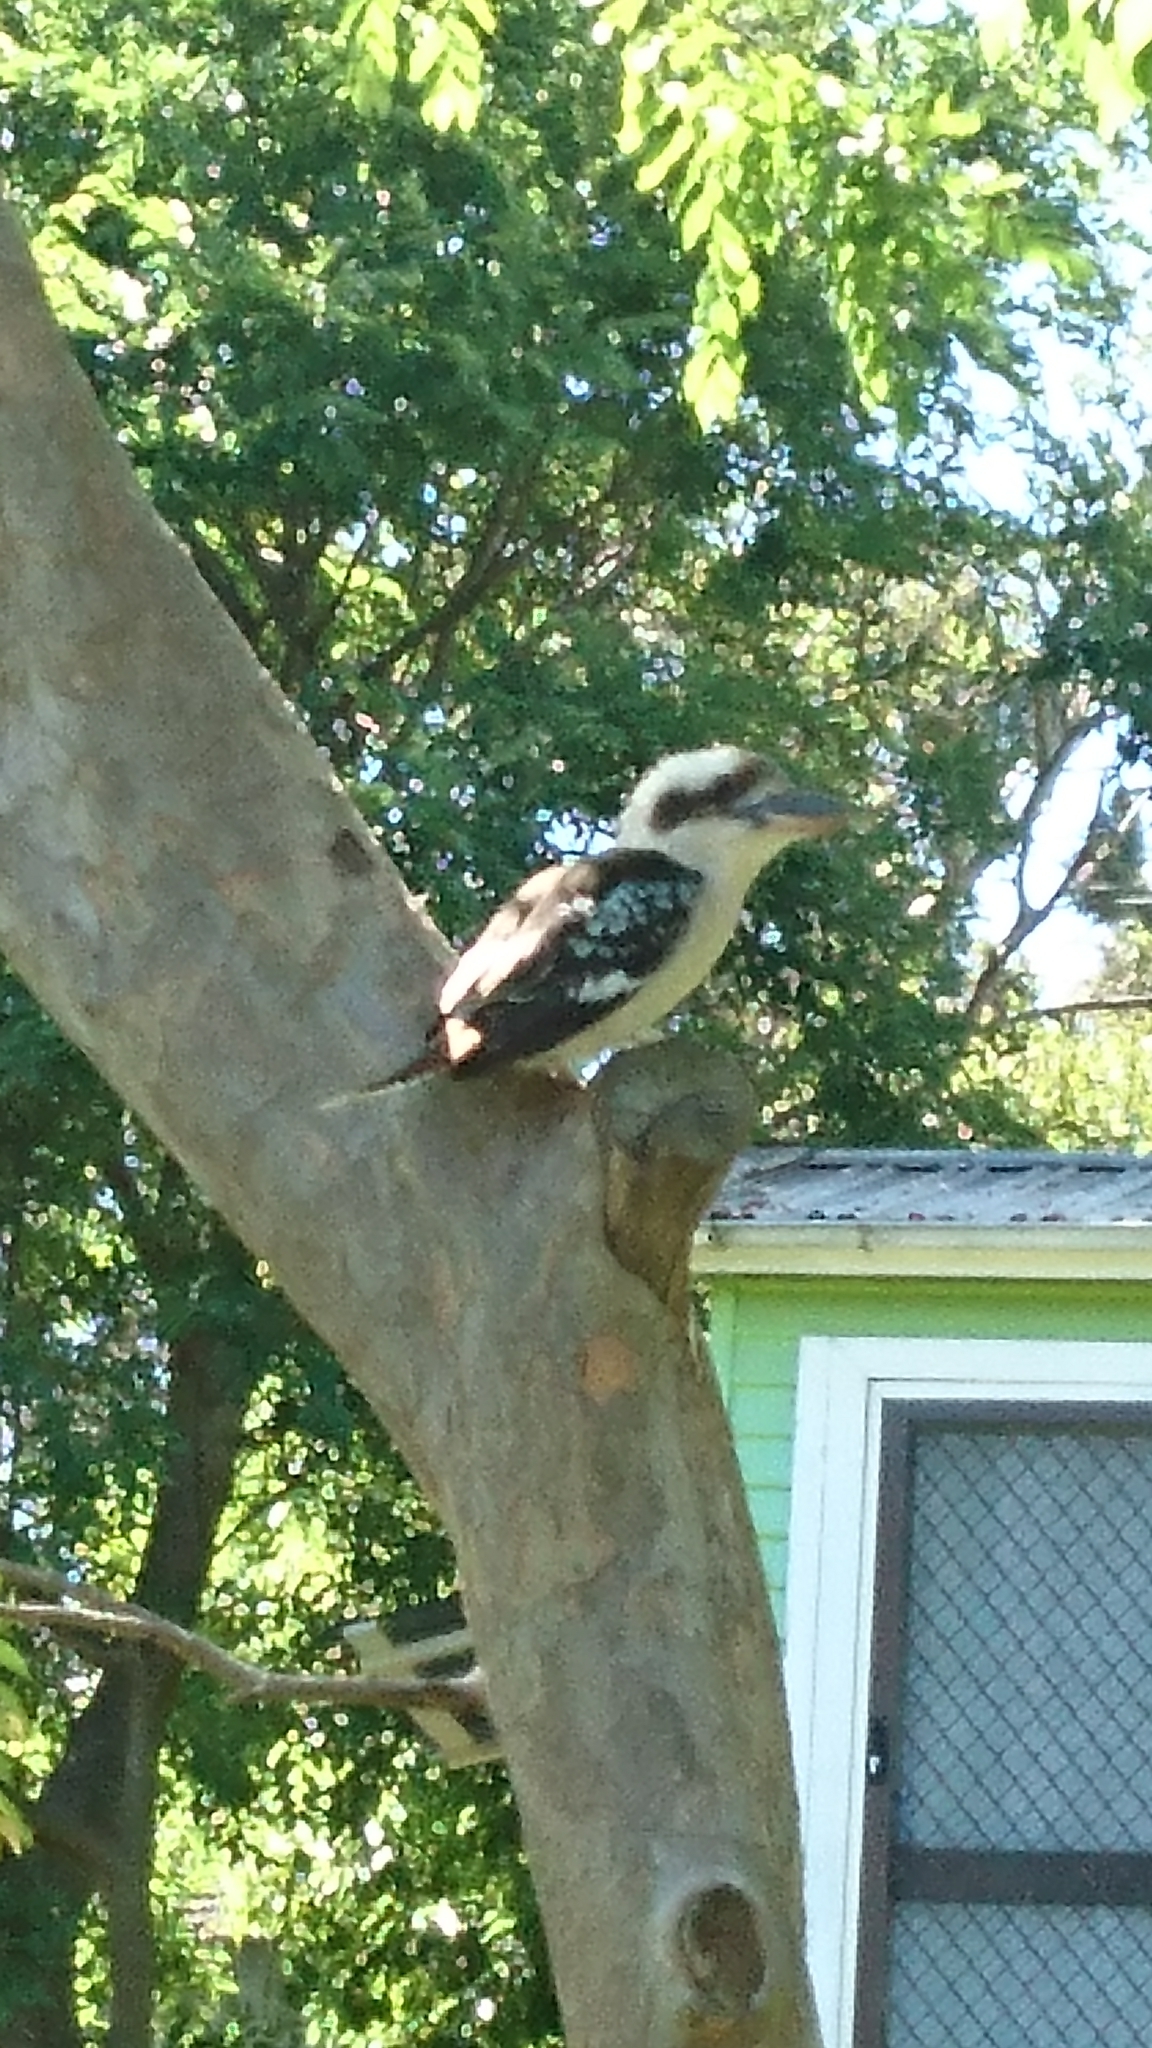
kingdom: Animalia
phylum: Chordata
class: Aves
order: Coraciiformes
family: Alcedinidae
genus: Dacelo
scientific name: Dacelo novaeguineae
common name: Laughing kookaburra
